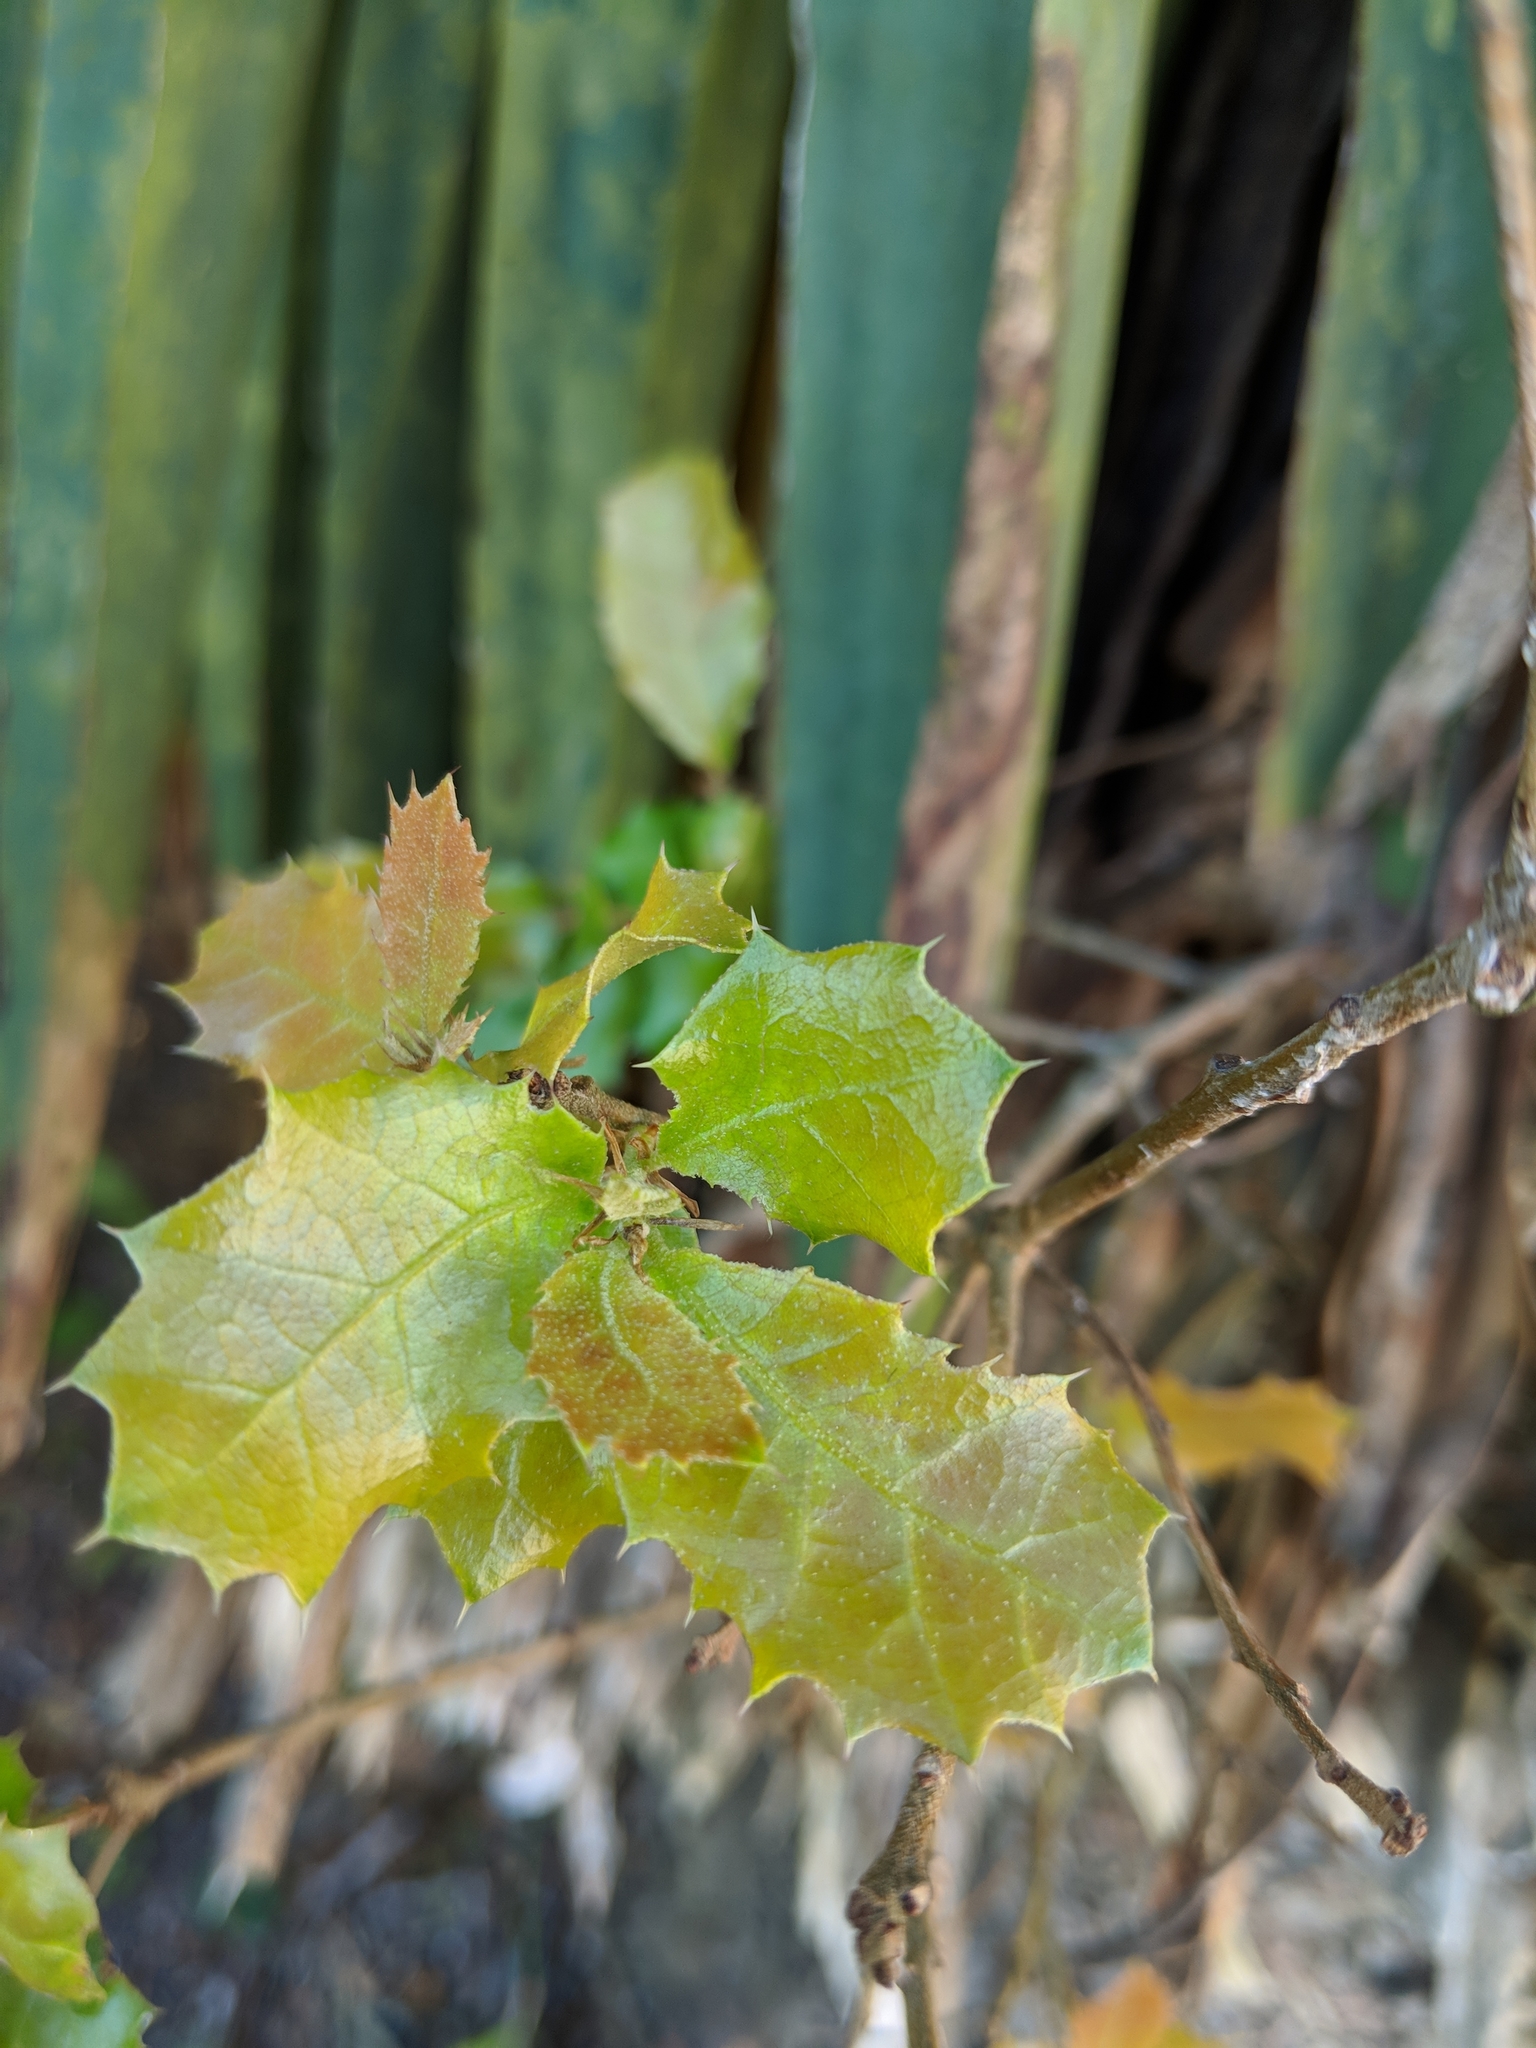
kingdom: Plantae
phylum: Tracheophyta
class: Magnoliopsida
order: Fagales
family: Fagaceae
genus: Quercus
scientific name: Quercus coccifera
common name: Kermes oak
